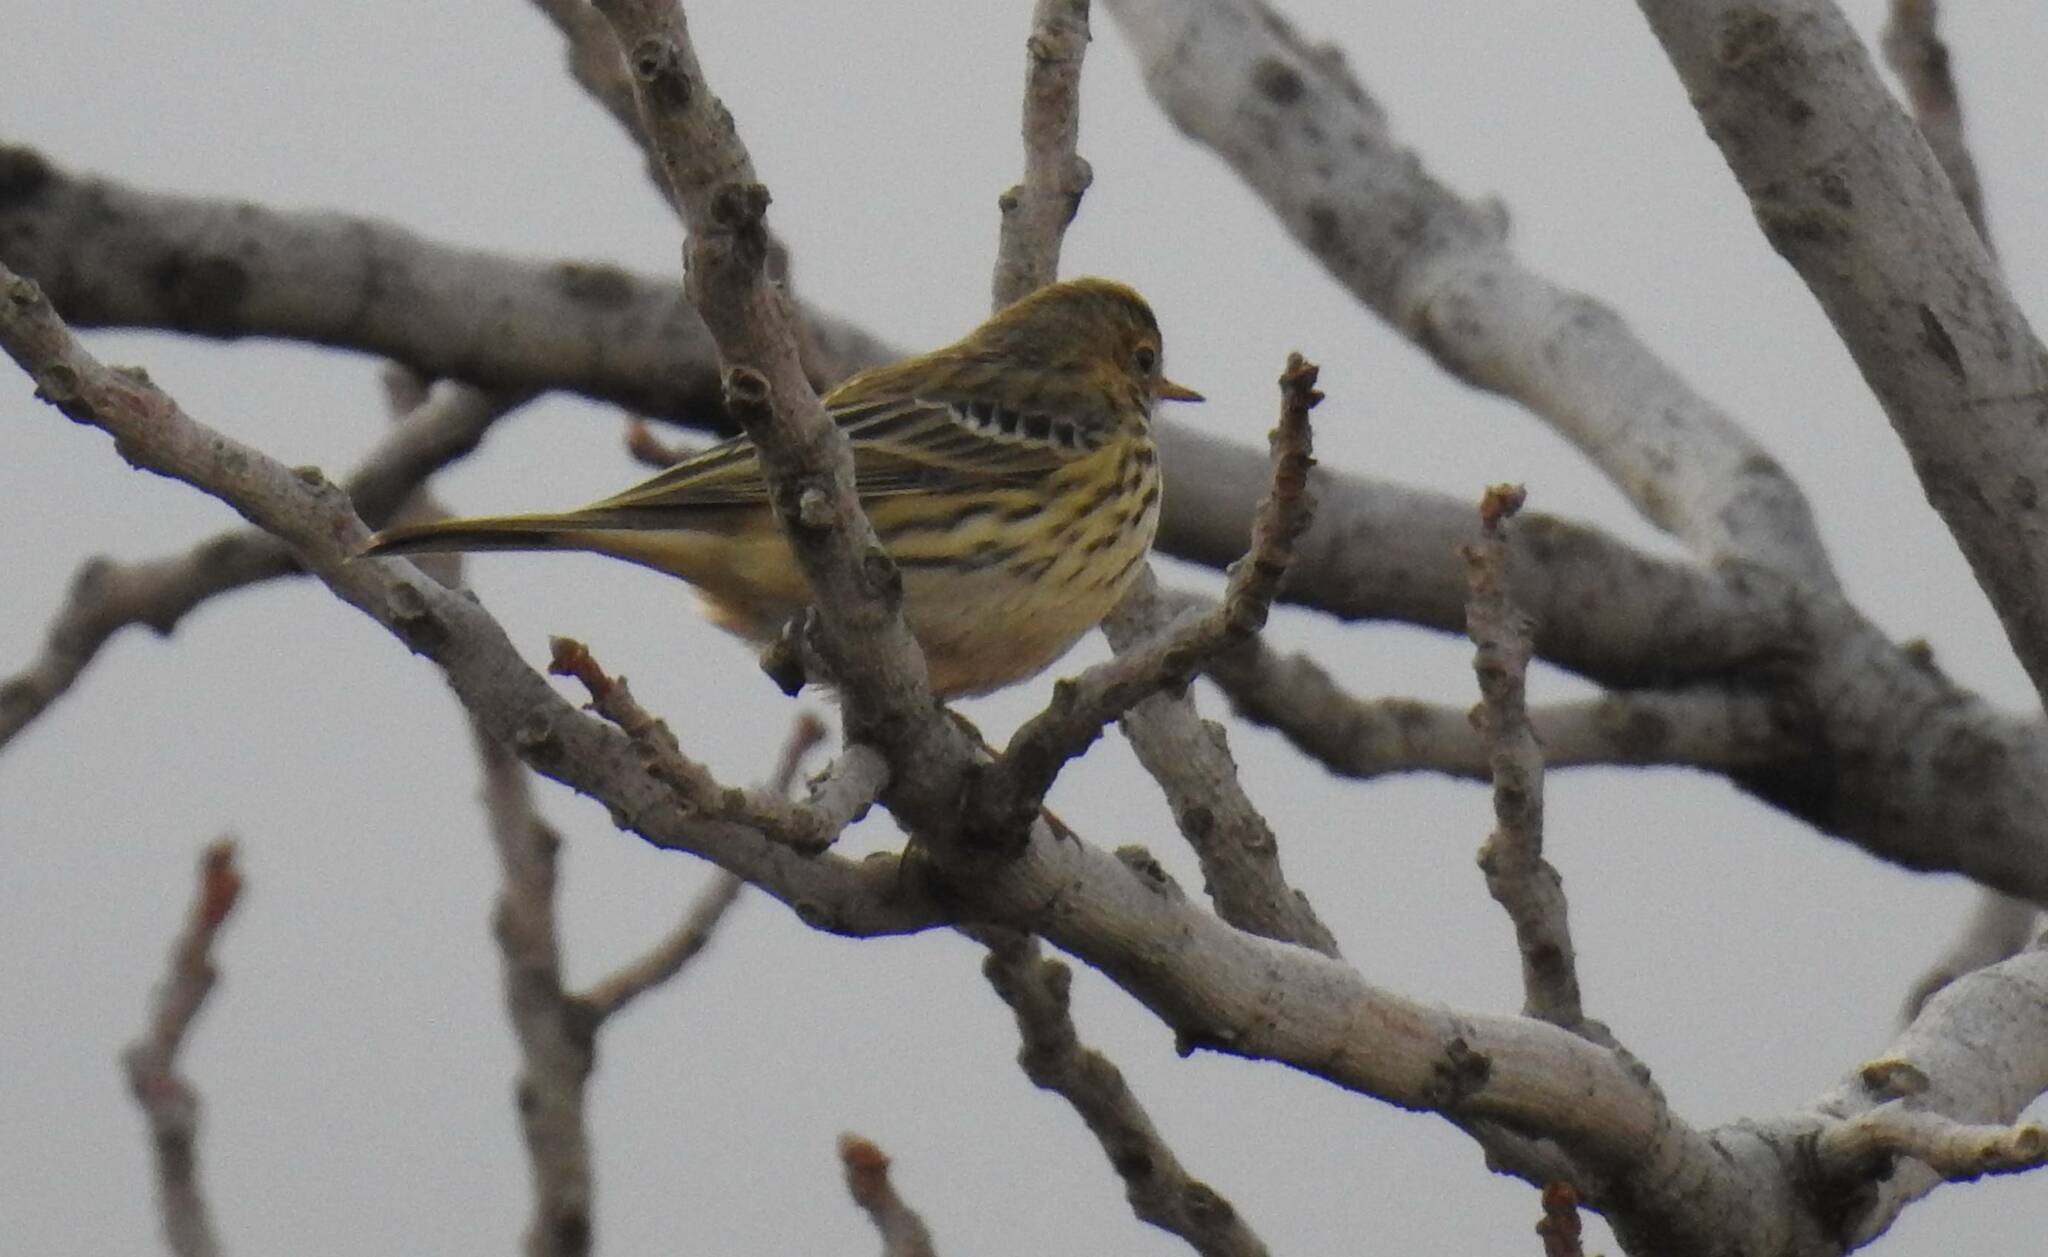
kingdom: Animalia
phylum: Chordata
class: Aves
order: Passeriformes
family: Motacillidae
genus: Anthus
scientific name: Anthus pratensis
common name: Meadow pipit
